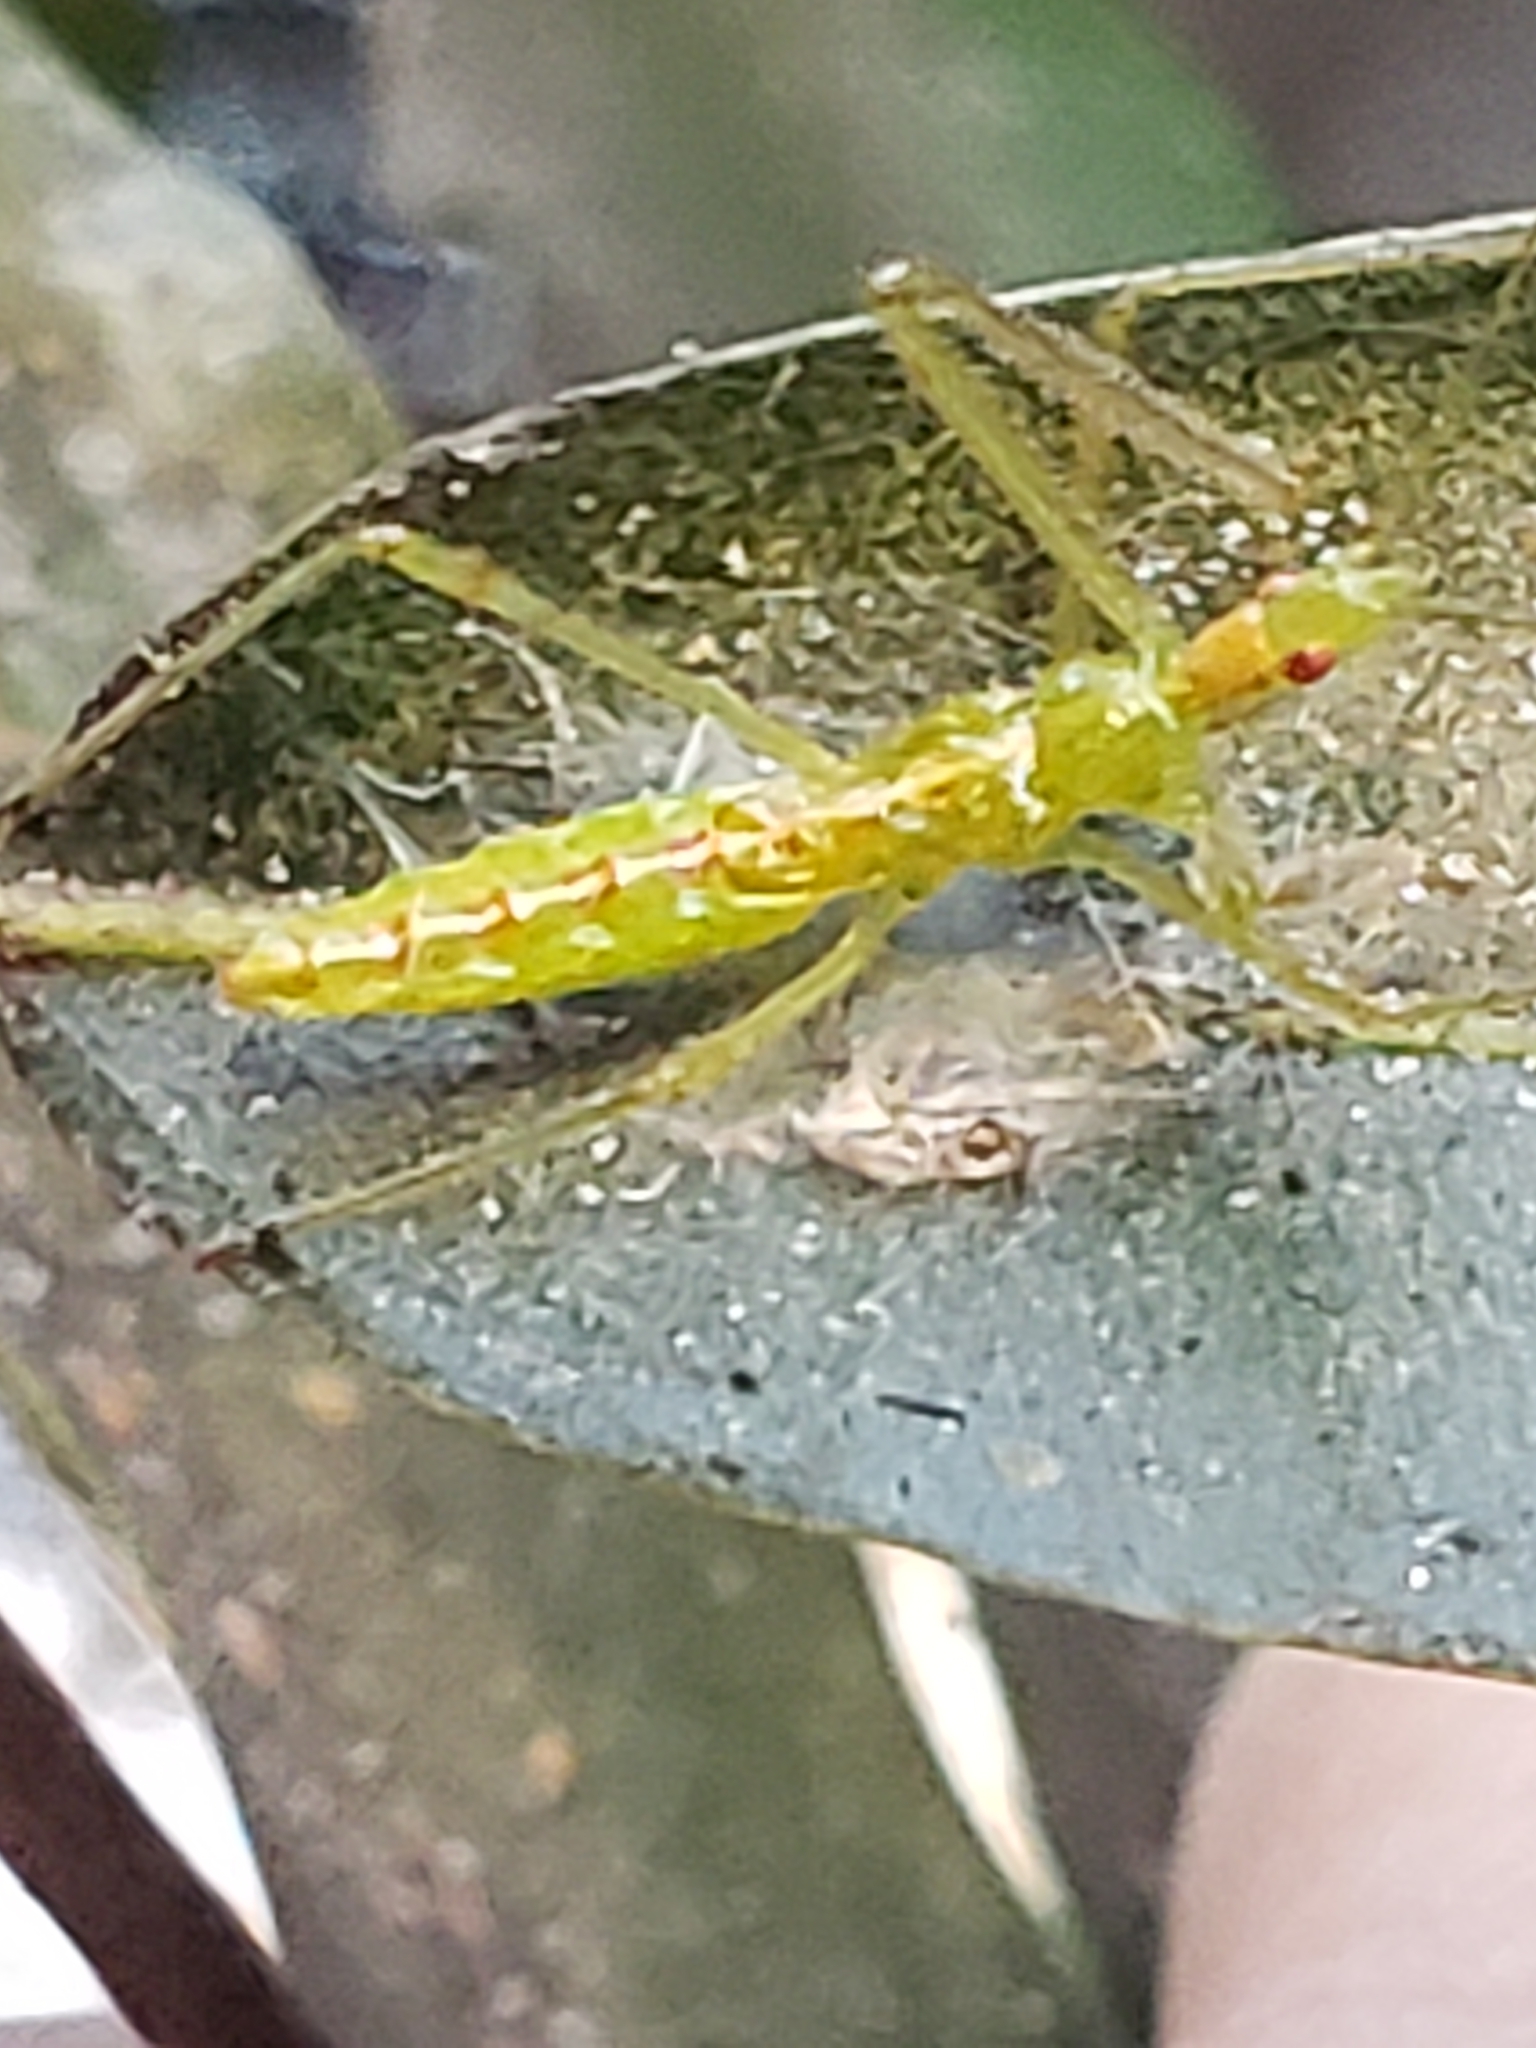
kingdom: Animalia
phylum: Arthropoda
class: Insecta
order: Hemiptera
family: Reduviidae
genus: Zelus
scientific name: Zelus luridus
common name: Pale green assassin bug
